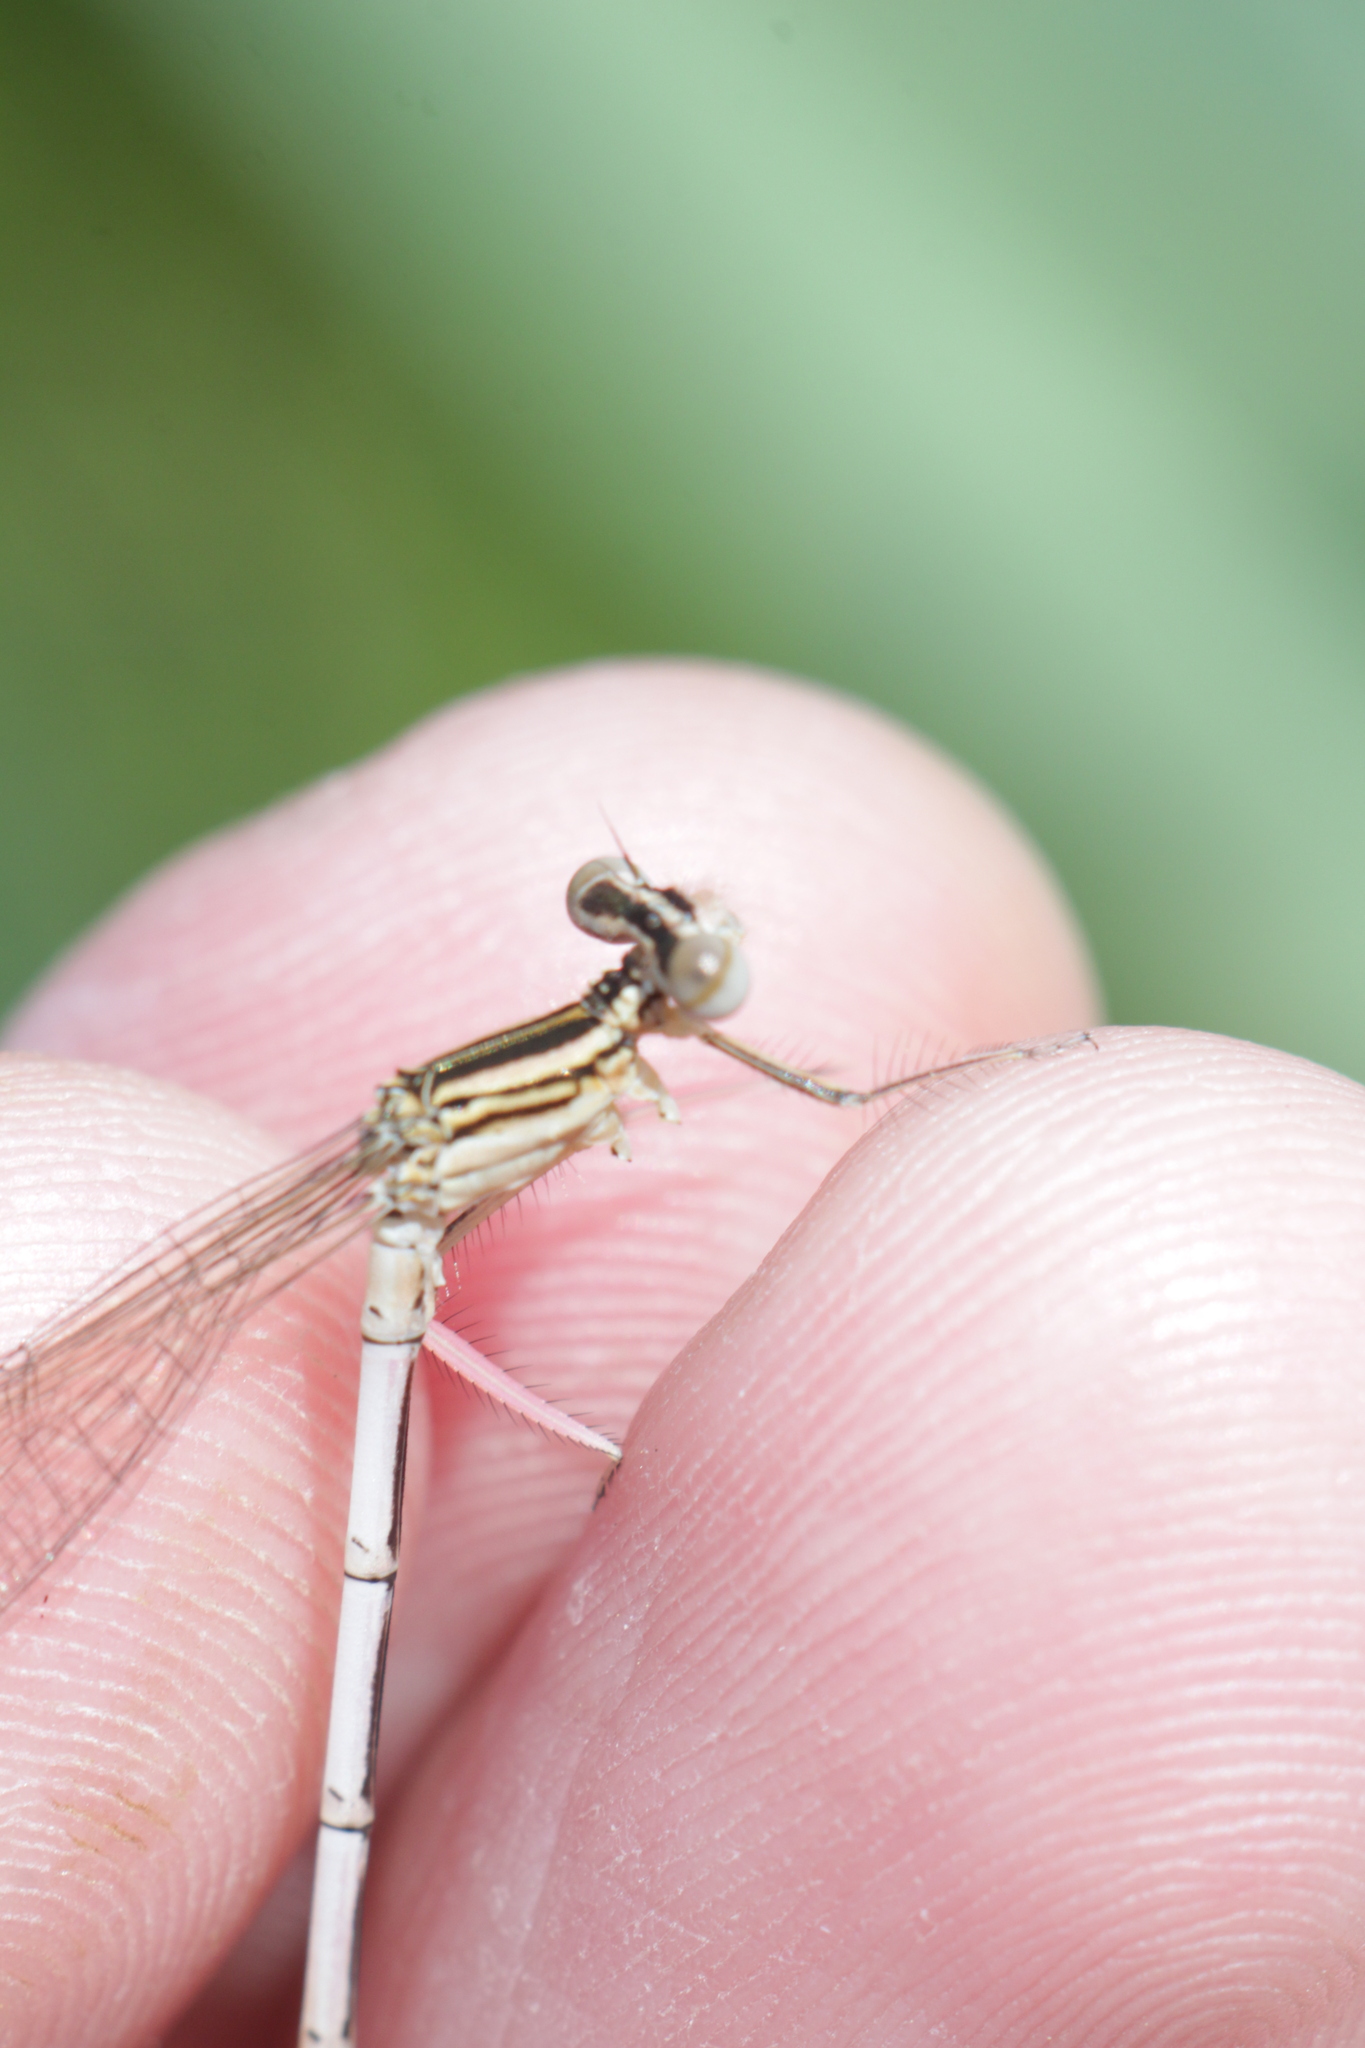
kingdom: Animalia
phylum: Arthropoda
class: Insecta
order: Odonata
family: Platycnemididae
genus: Platycnemis
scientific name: Platycnemis pennipes
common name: White-legged damselfly
